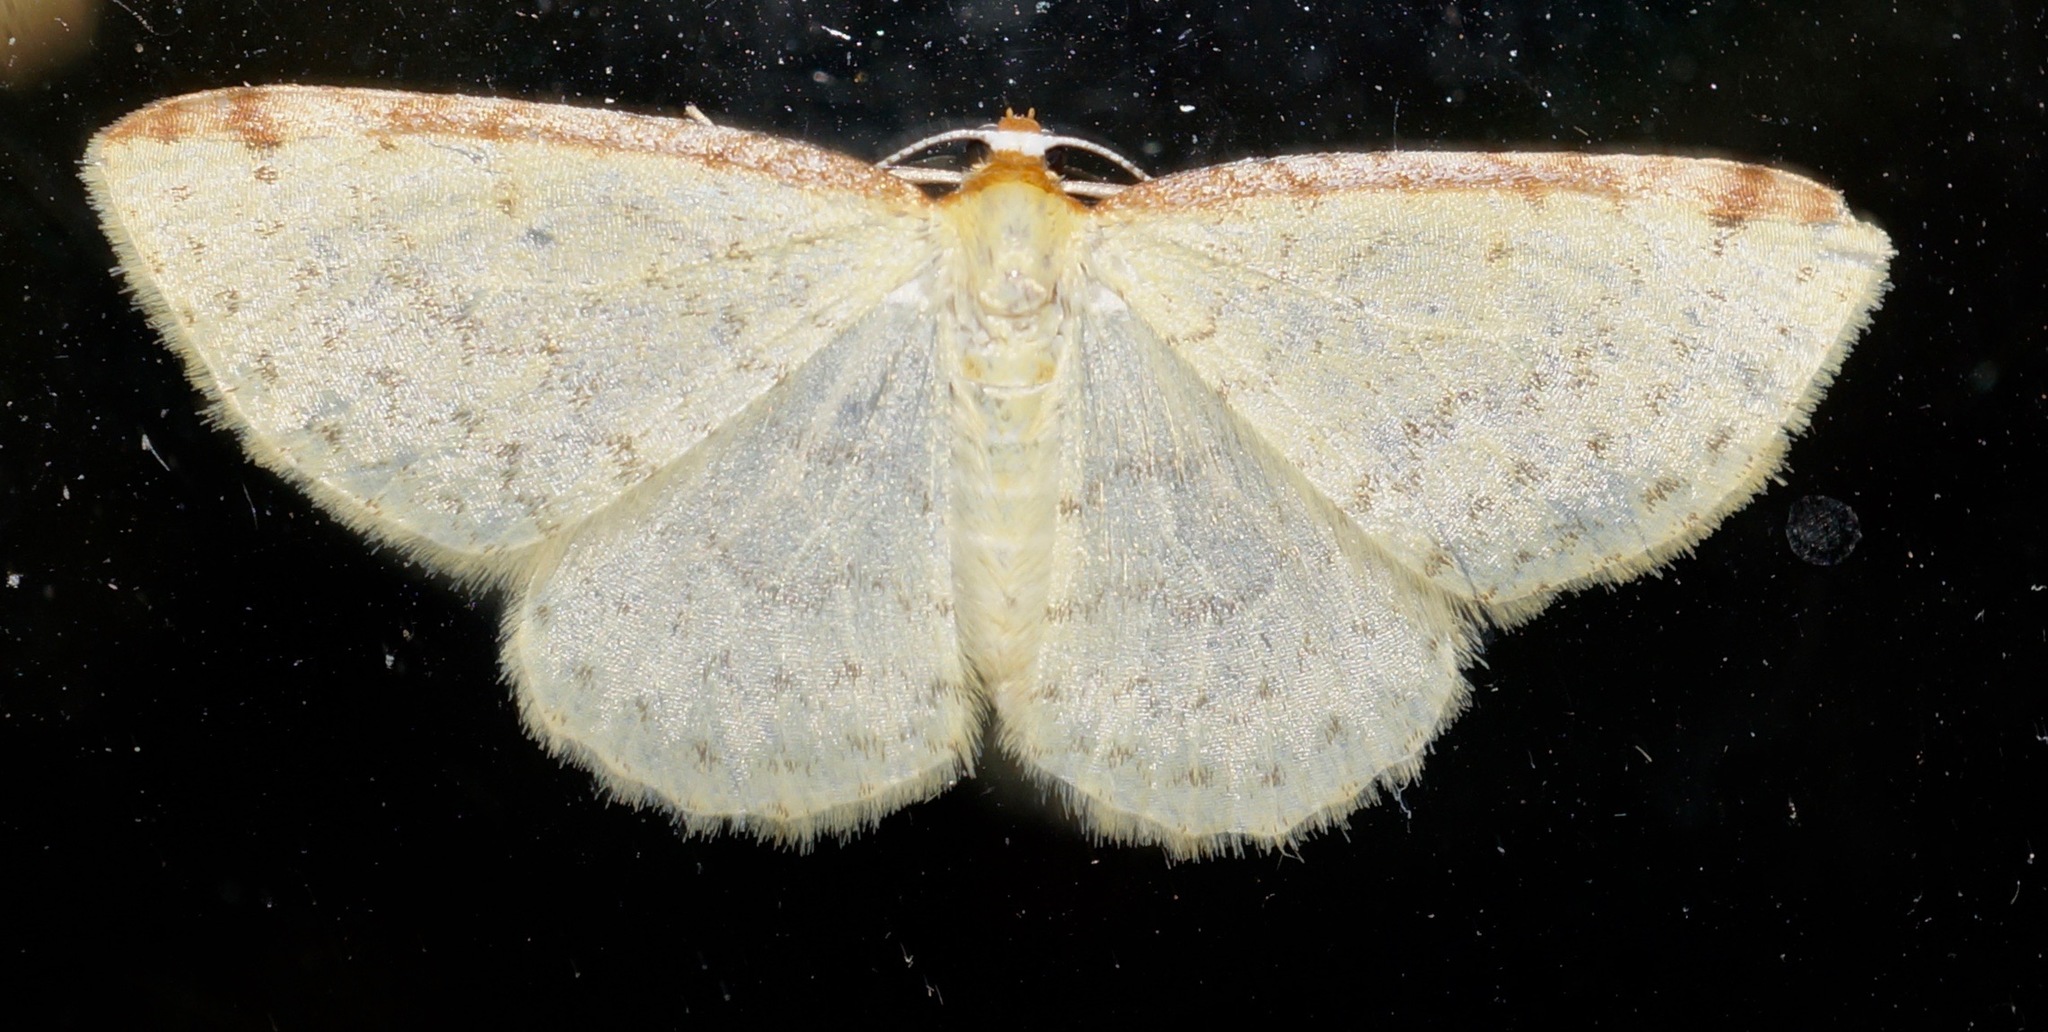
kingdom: Animalia
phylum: Arthropoda
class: Insecta
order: Lepidoptera
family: Geometridae
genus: Epiphryne
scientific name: Epiphryne undosata
